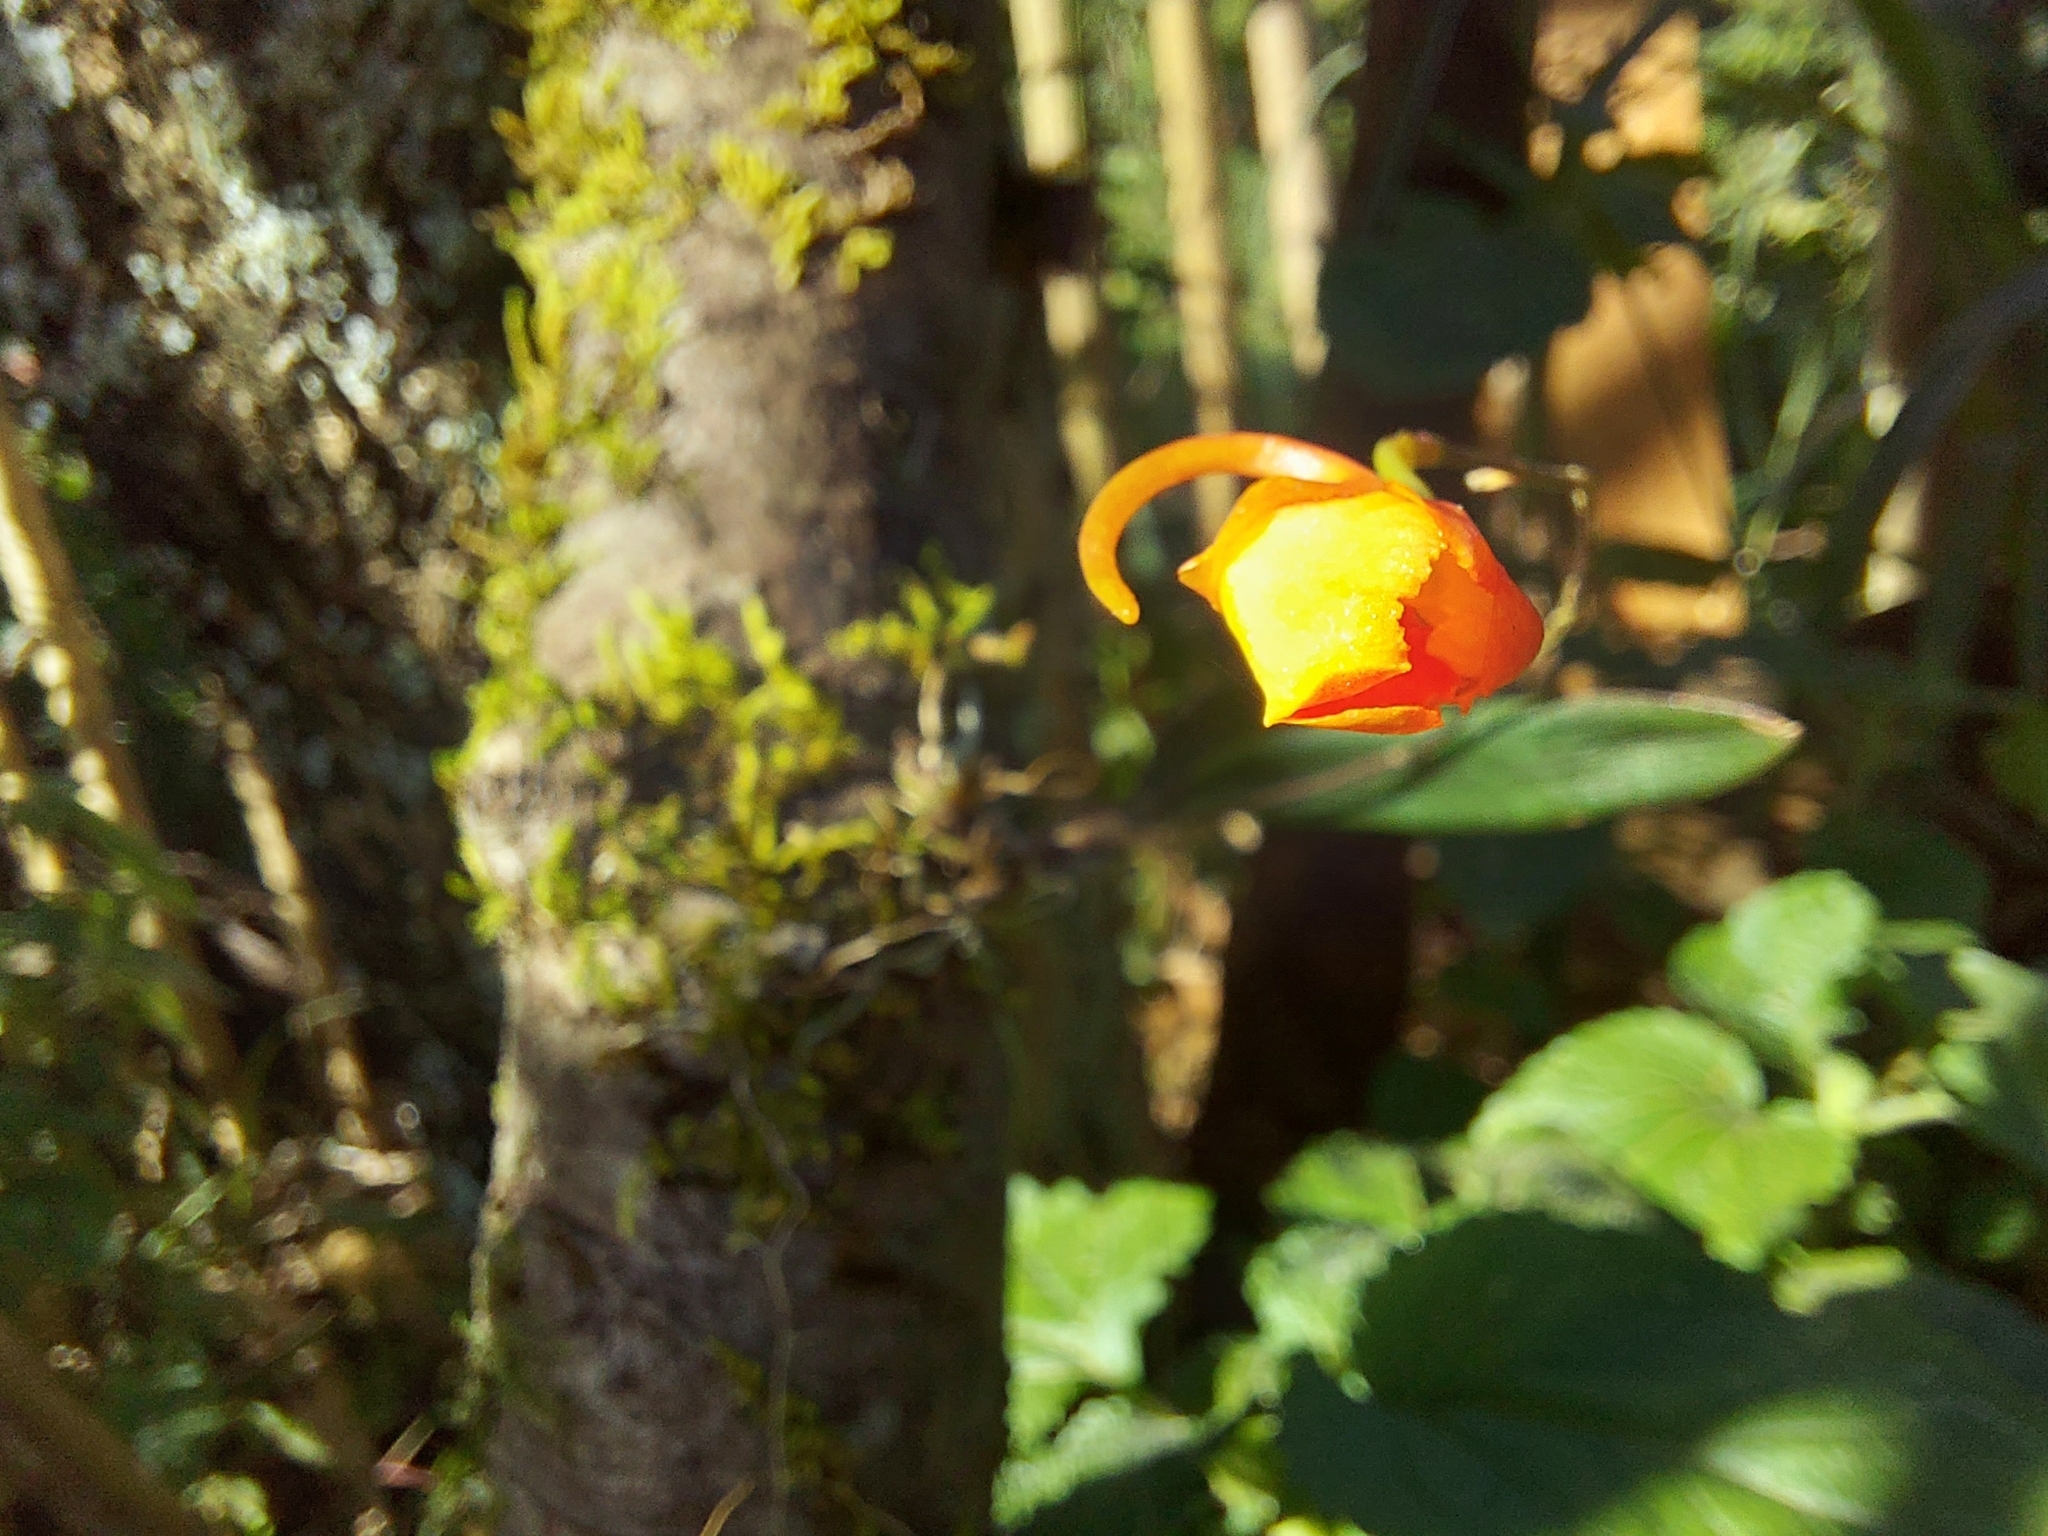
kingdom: Plantae
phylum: Tracheophyta
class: Liliopsida
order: Asparagales
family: Orchidaceae
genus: Comparettia
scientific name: Comparettia coccinea
